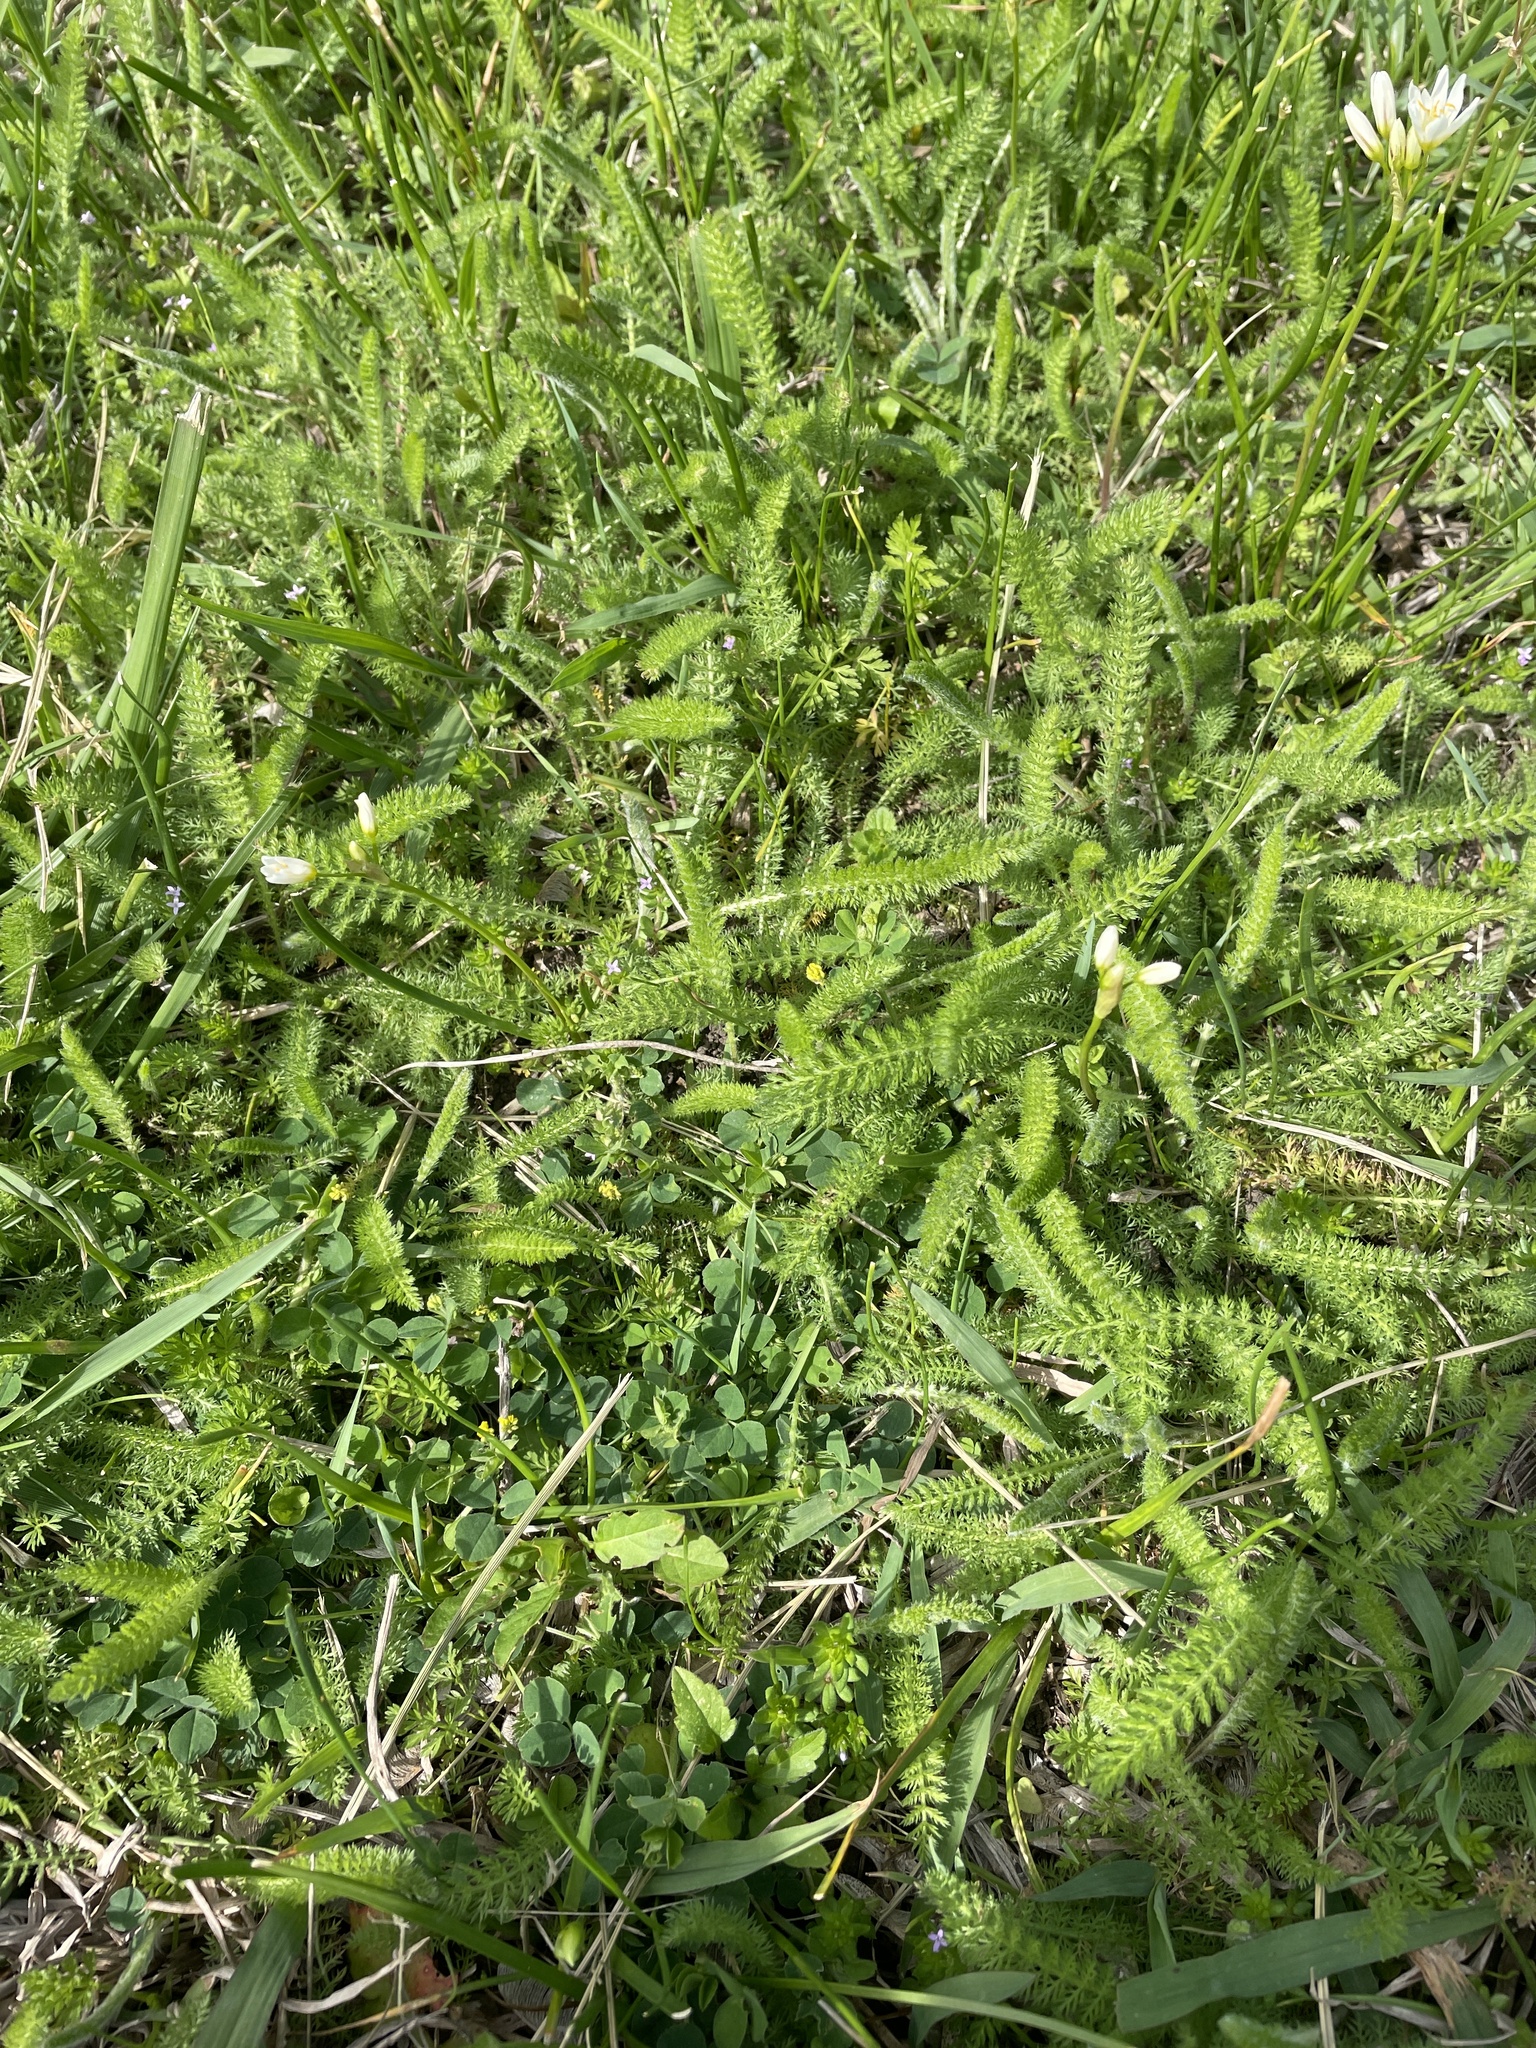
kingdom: Plantae
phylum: Tracheophyta
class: Magnoliopsida
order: Asterales
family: Asteraceae
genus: Achillea
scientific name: Achillea millefolium
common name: Yarrow
